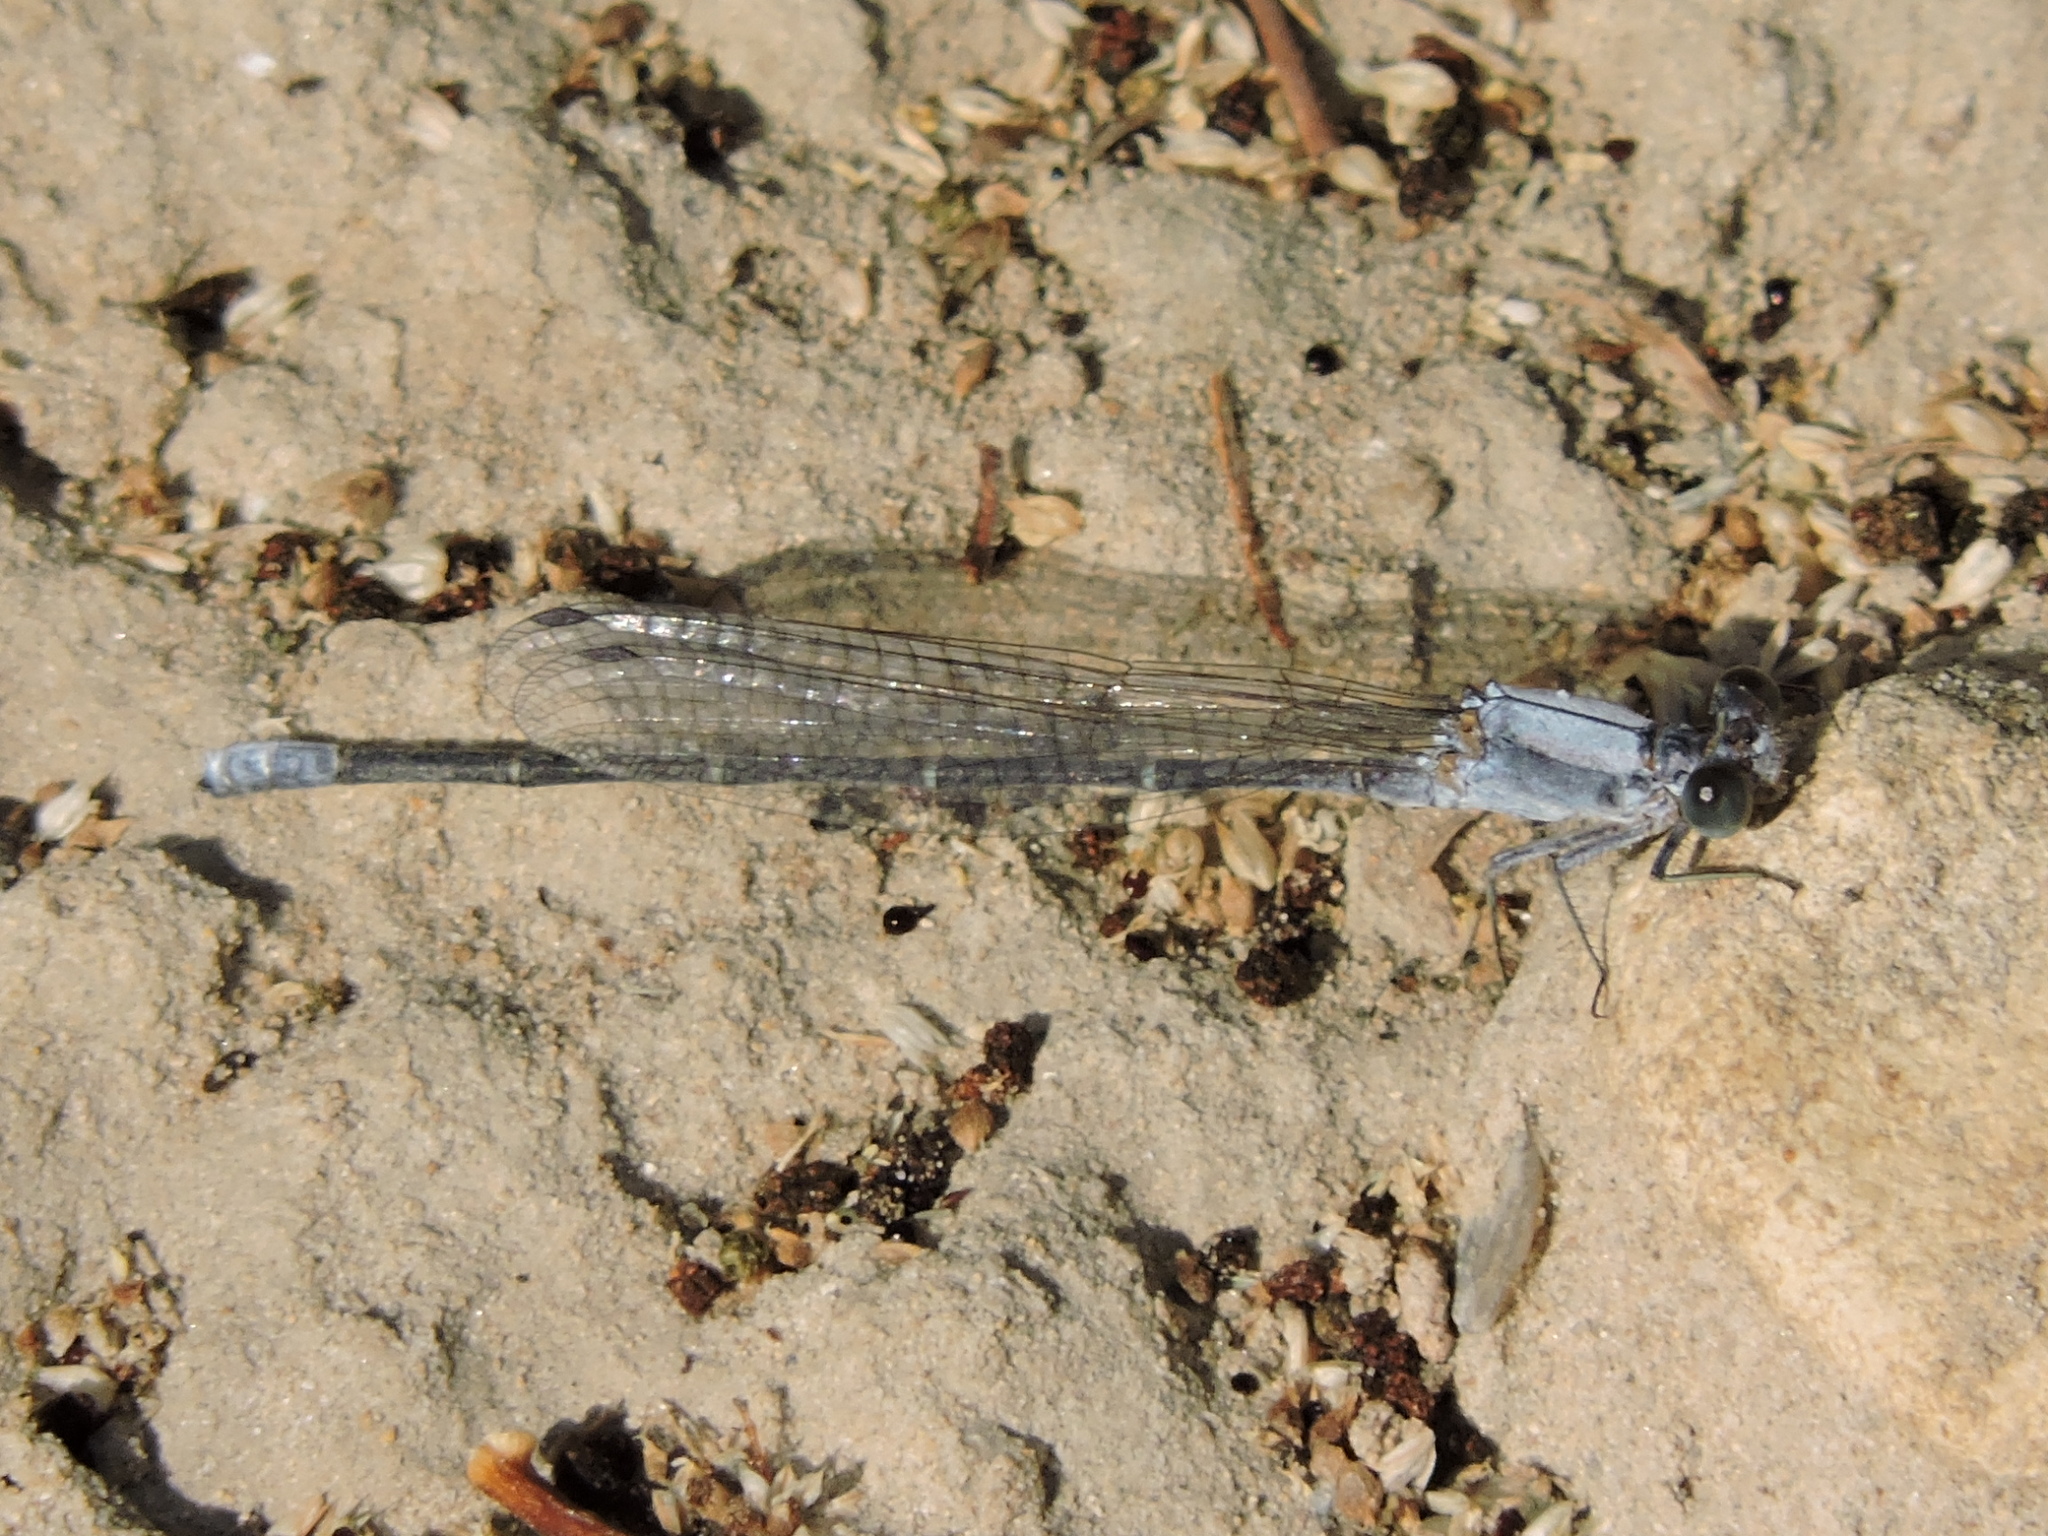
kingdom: Animalia
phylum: Arthropoda
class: Insecta
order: Odonata
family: Coenagrionidae
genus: Argia
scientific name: Argia moesta
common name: Powdered dancer
